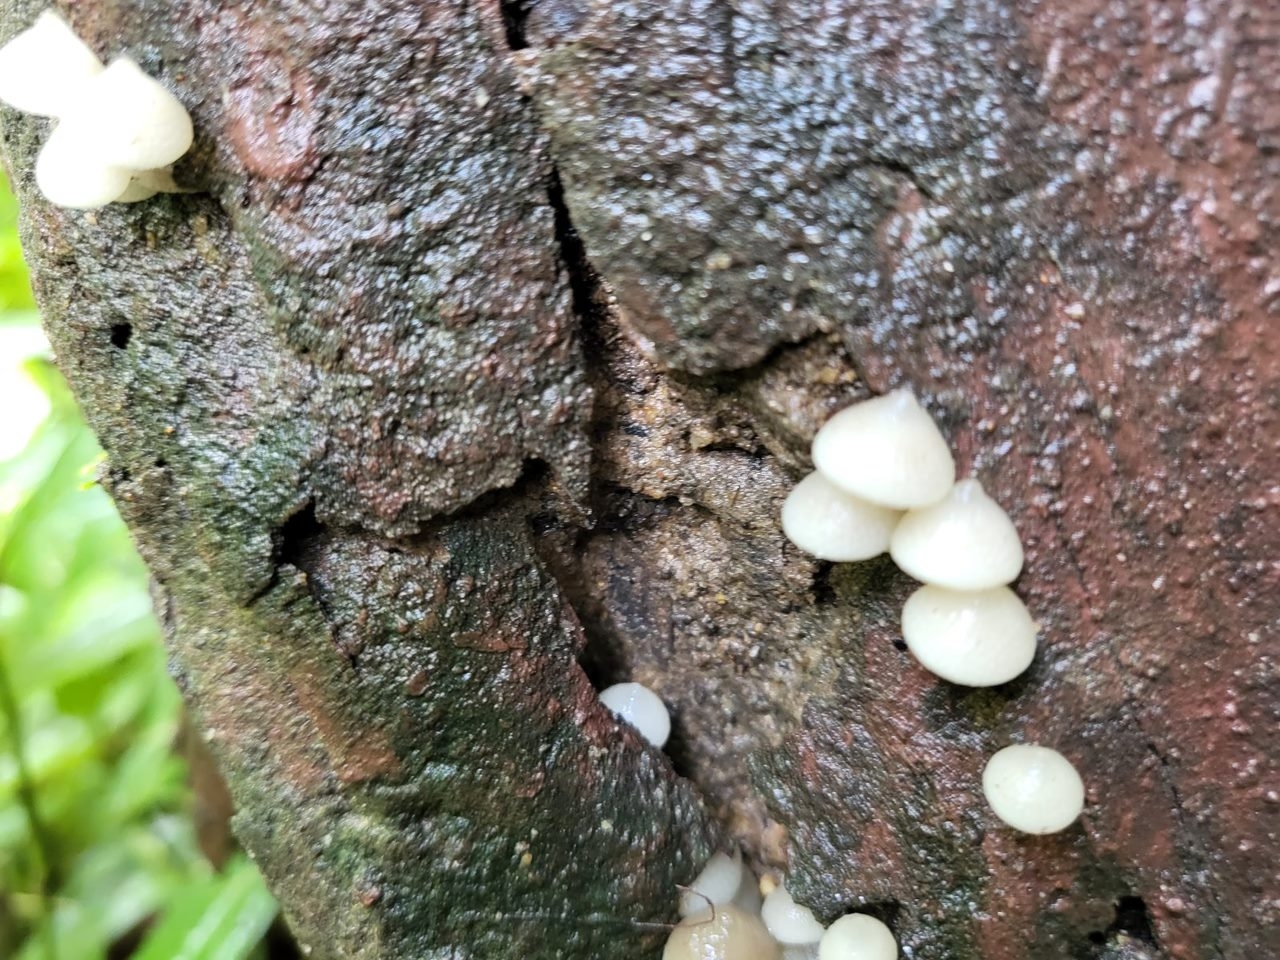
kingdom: Fungi
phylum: Basidiomycota
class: Agaricomycetes
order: Agaricales
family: Mycenaceae
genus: Filoboletus
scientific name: Filoboletus manipularis
